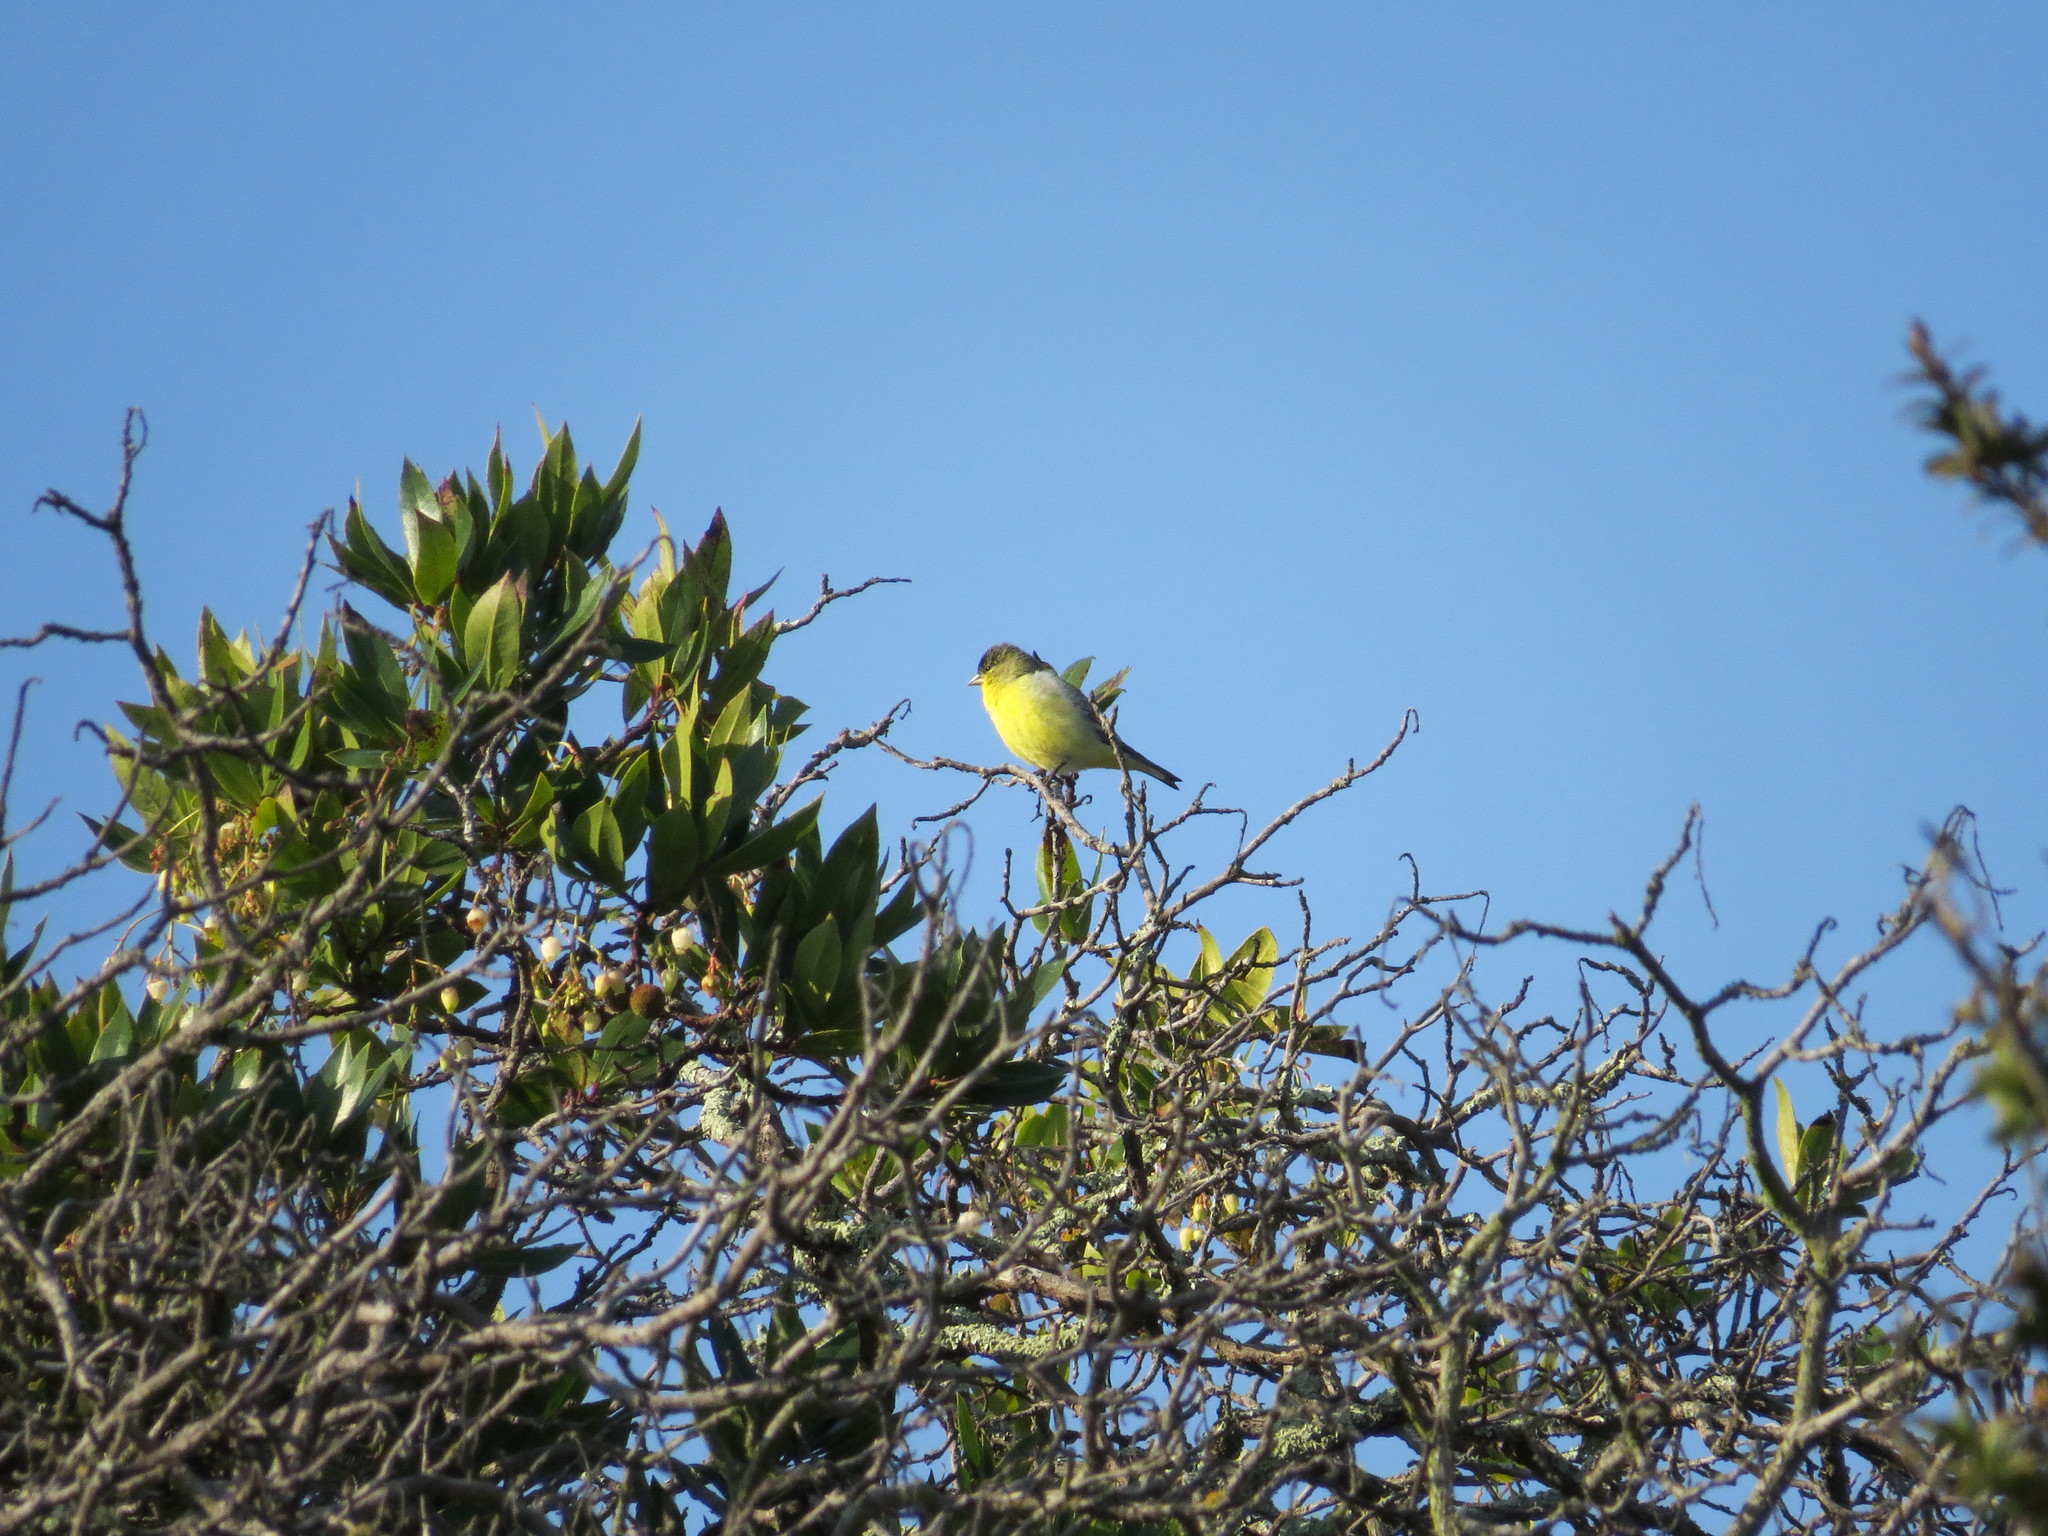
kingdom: Animalia
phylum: Chordata
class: Aves
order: Passeriformes
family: Fringillidae
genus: Spinus
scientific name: Spinus psaltria
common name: Lesser goldfinch
